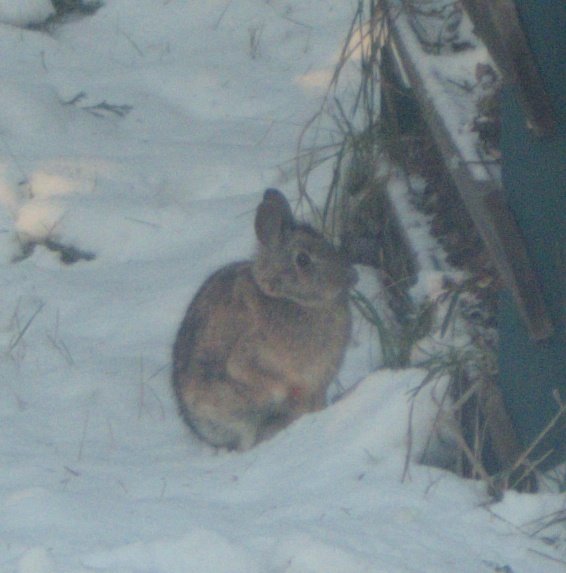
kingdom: Animalia
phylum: Chordata
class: Mammalia
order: Lagomorpha
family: Leporidae
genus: Sylvilagus
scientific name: Sylvilagus floridanus
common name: Eastern cottontail
